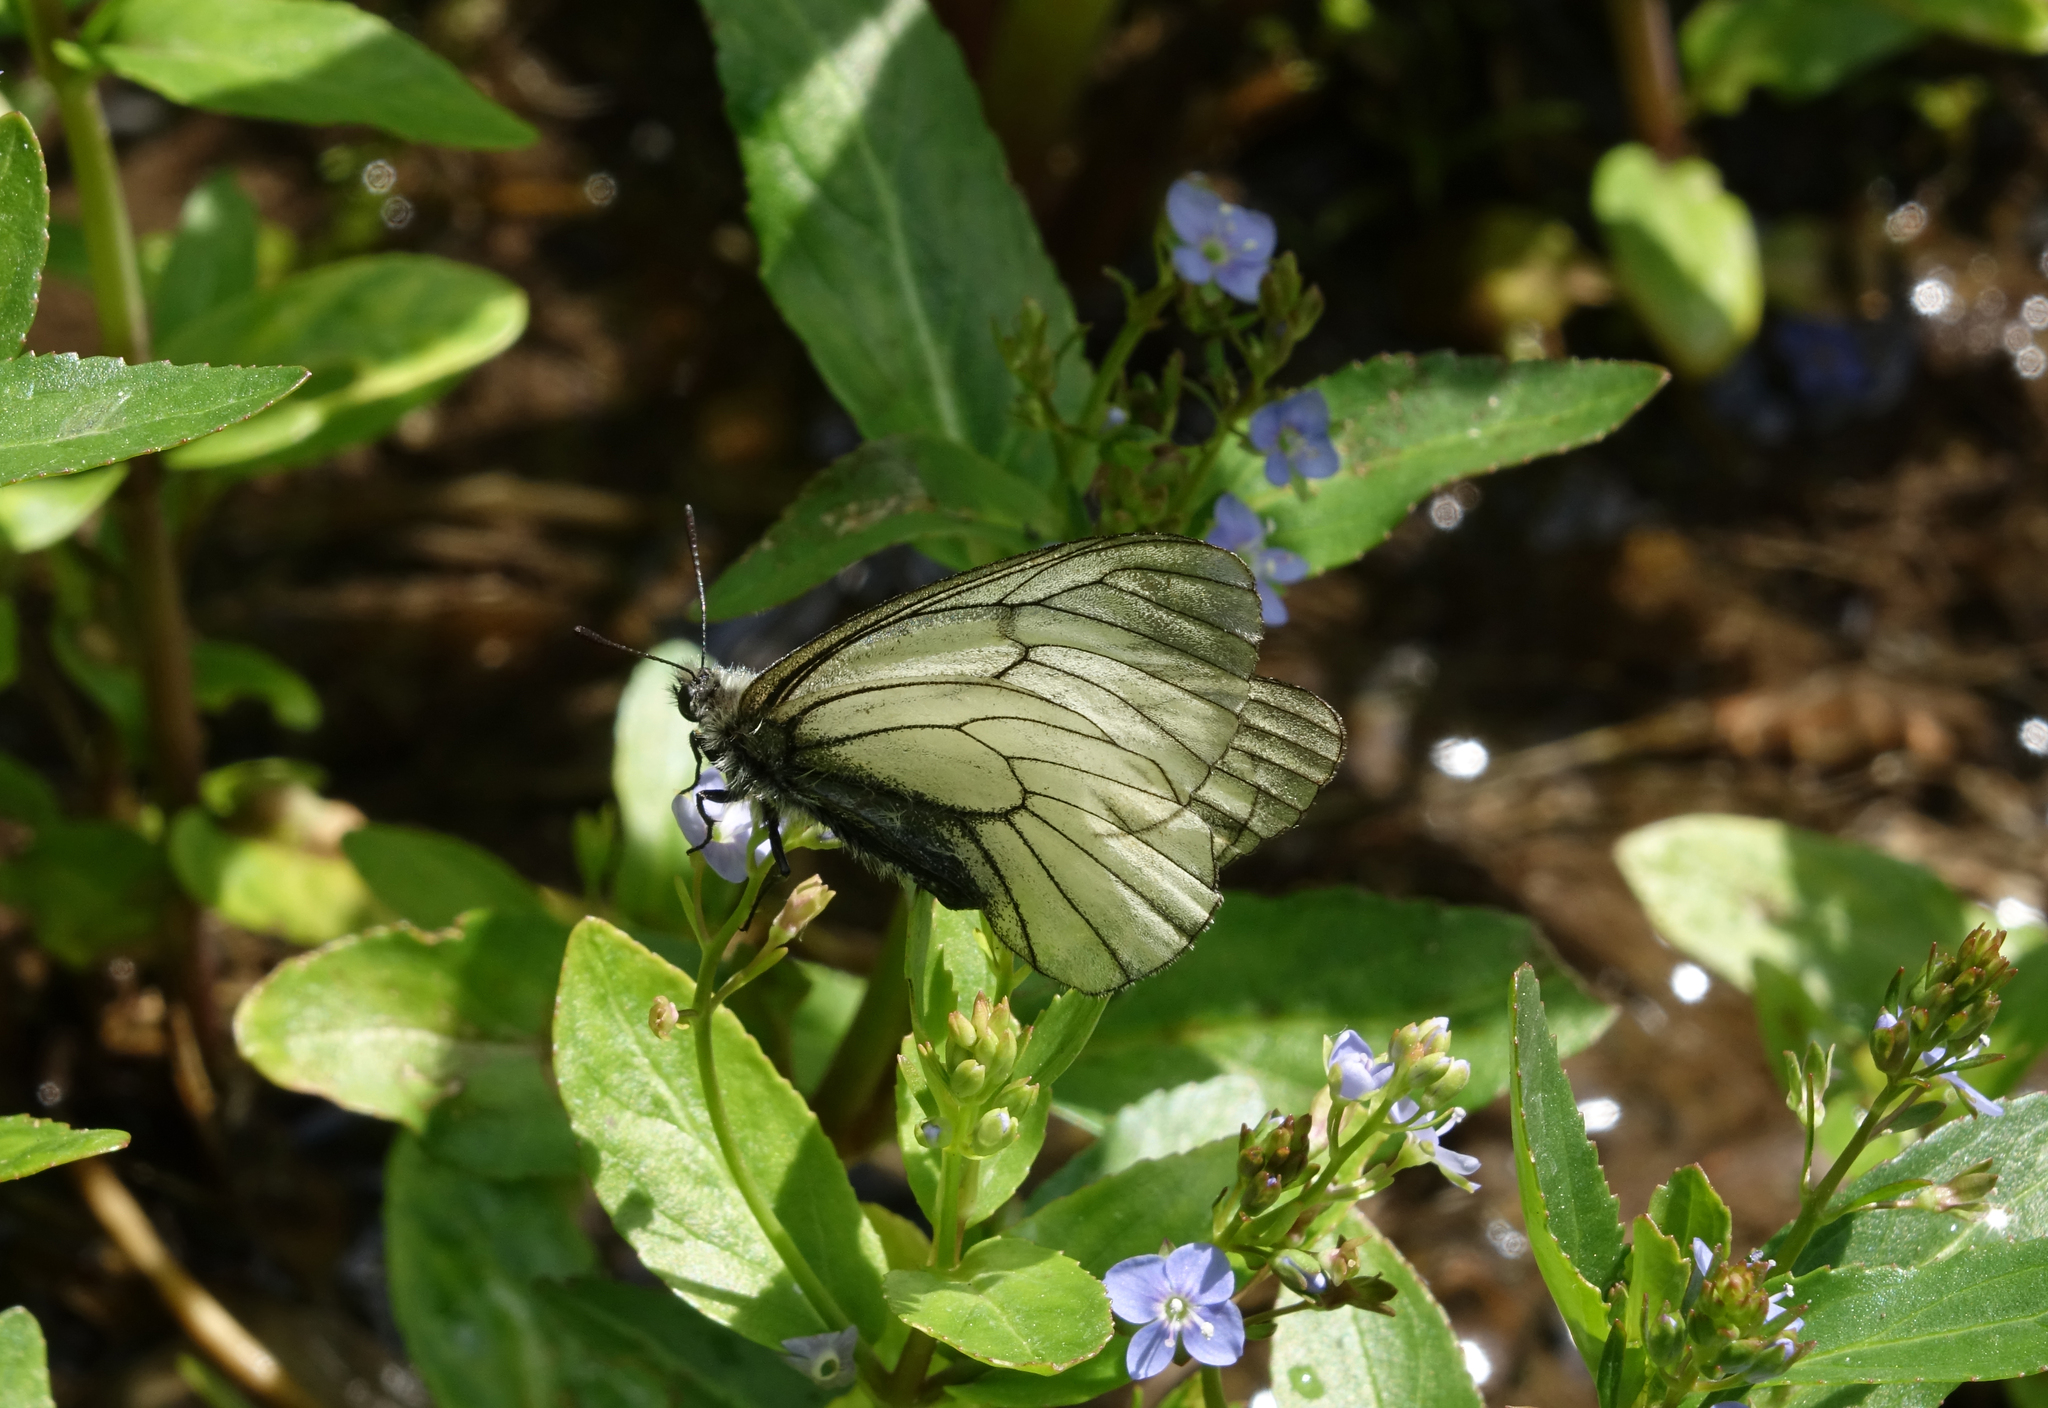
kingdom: Plantae
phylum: Tracheophyta
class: Magnoliopsida
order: Lamiales
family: Plantaginaceae
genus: Veronica
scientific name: Veronica beccabunga
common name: Brooklime
